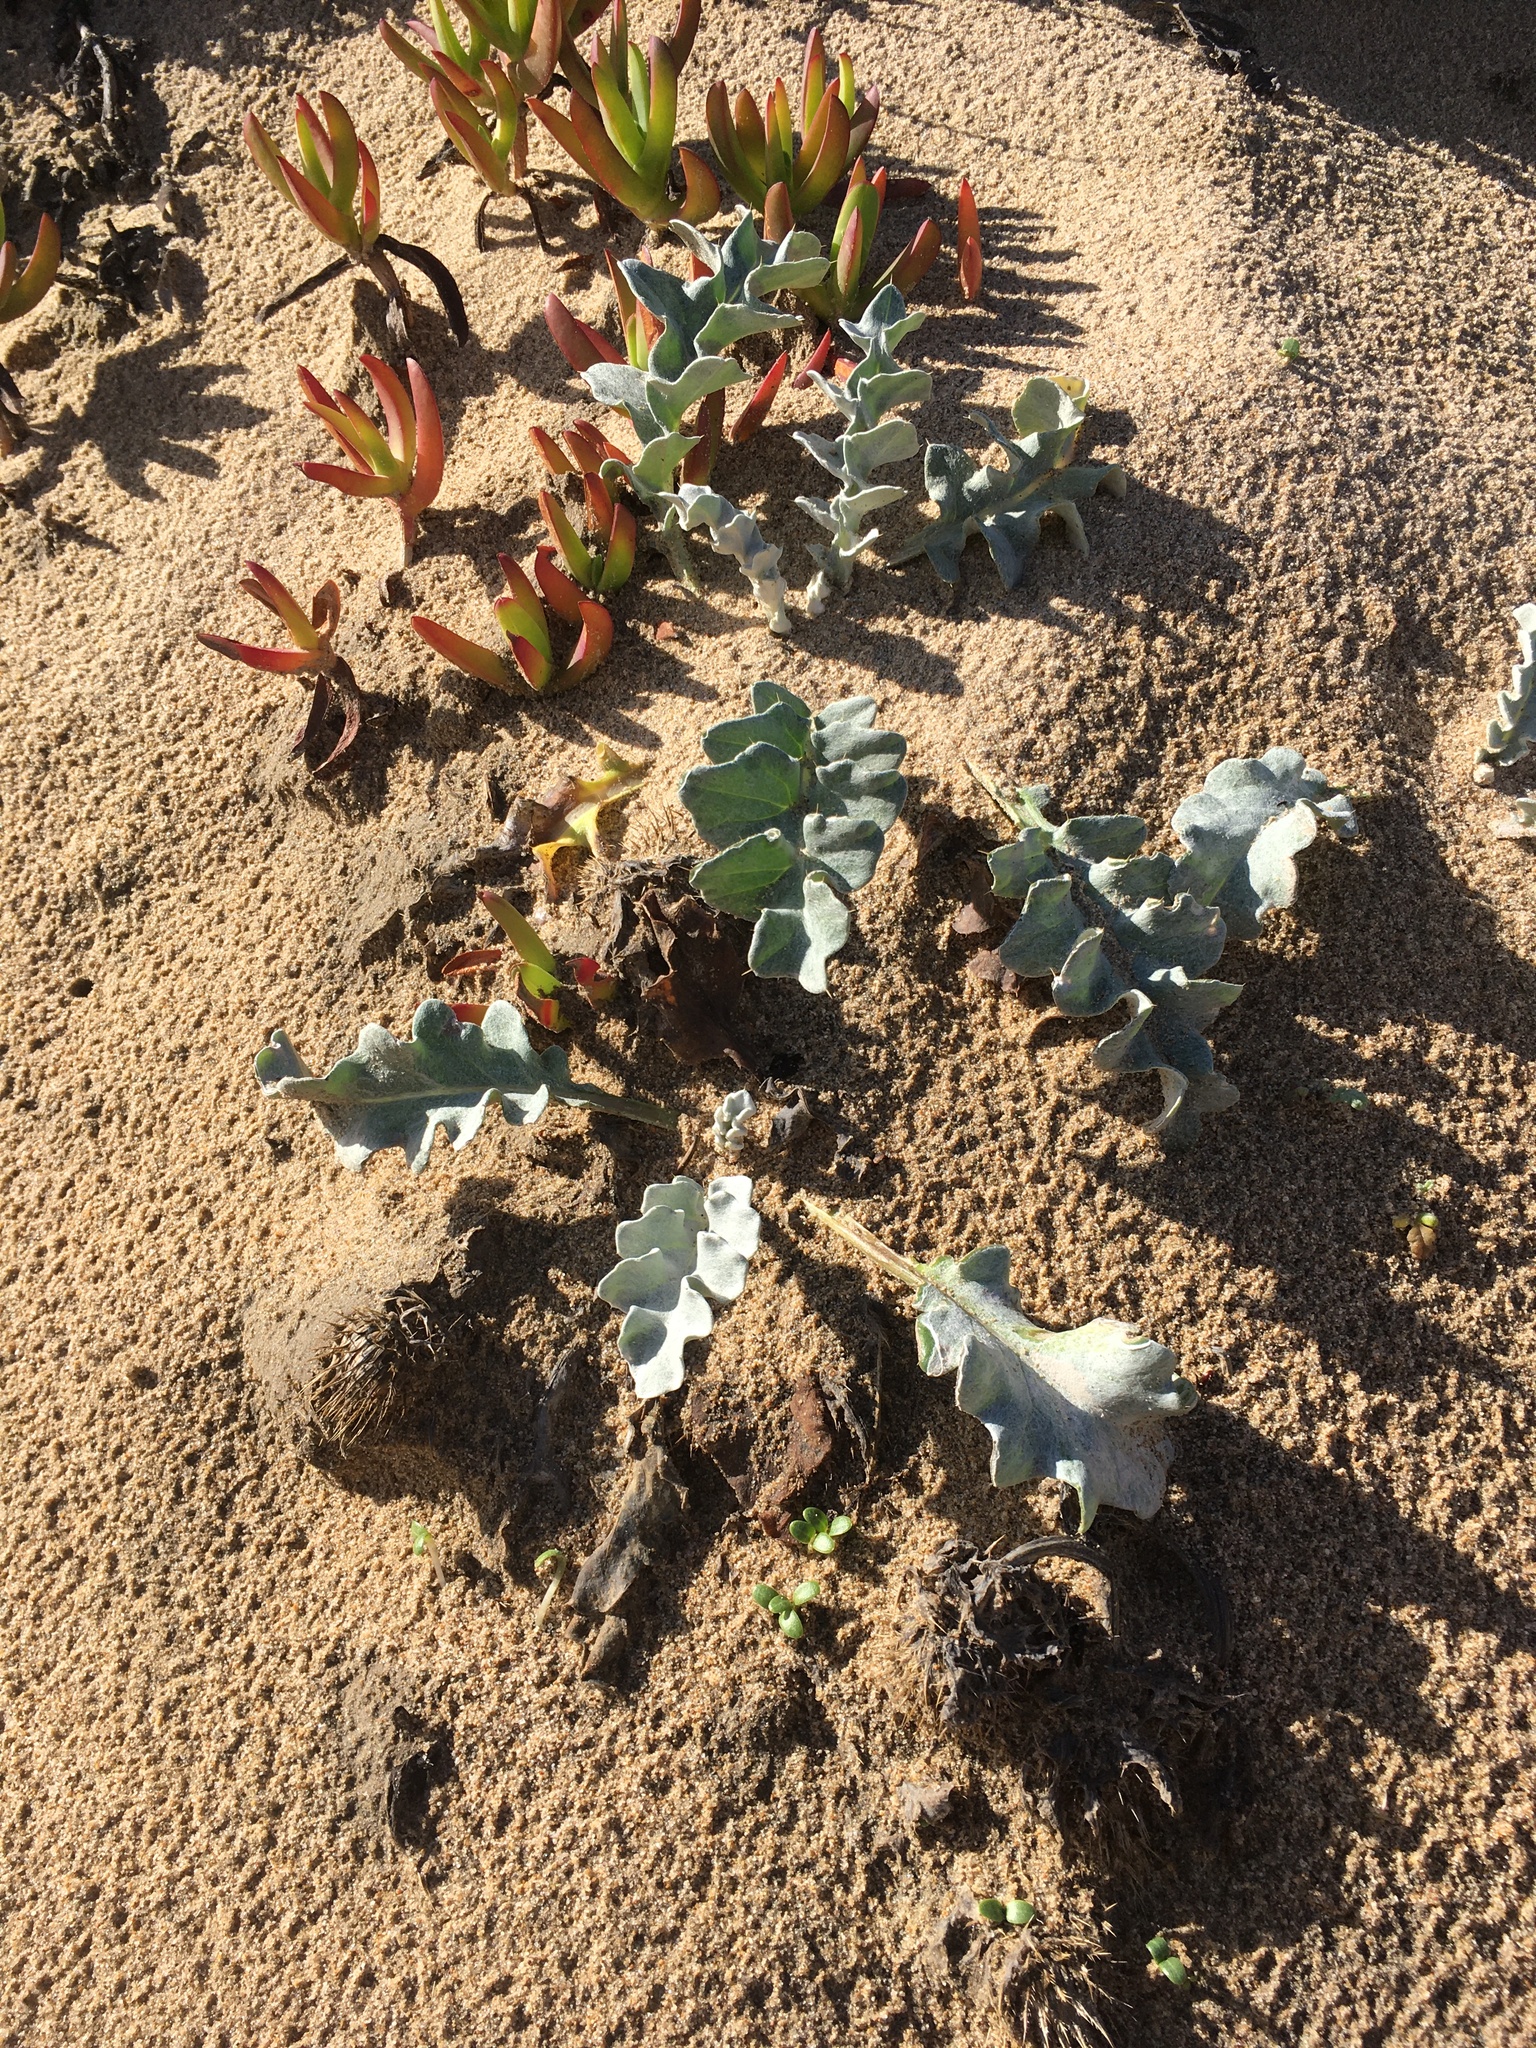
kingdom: Plantae
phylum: Tracheophyta
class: Magnoliopsida
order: Asterales
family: Asteraceae
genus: Cirsium
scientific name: Cirsium rhothophilum
